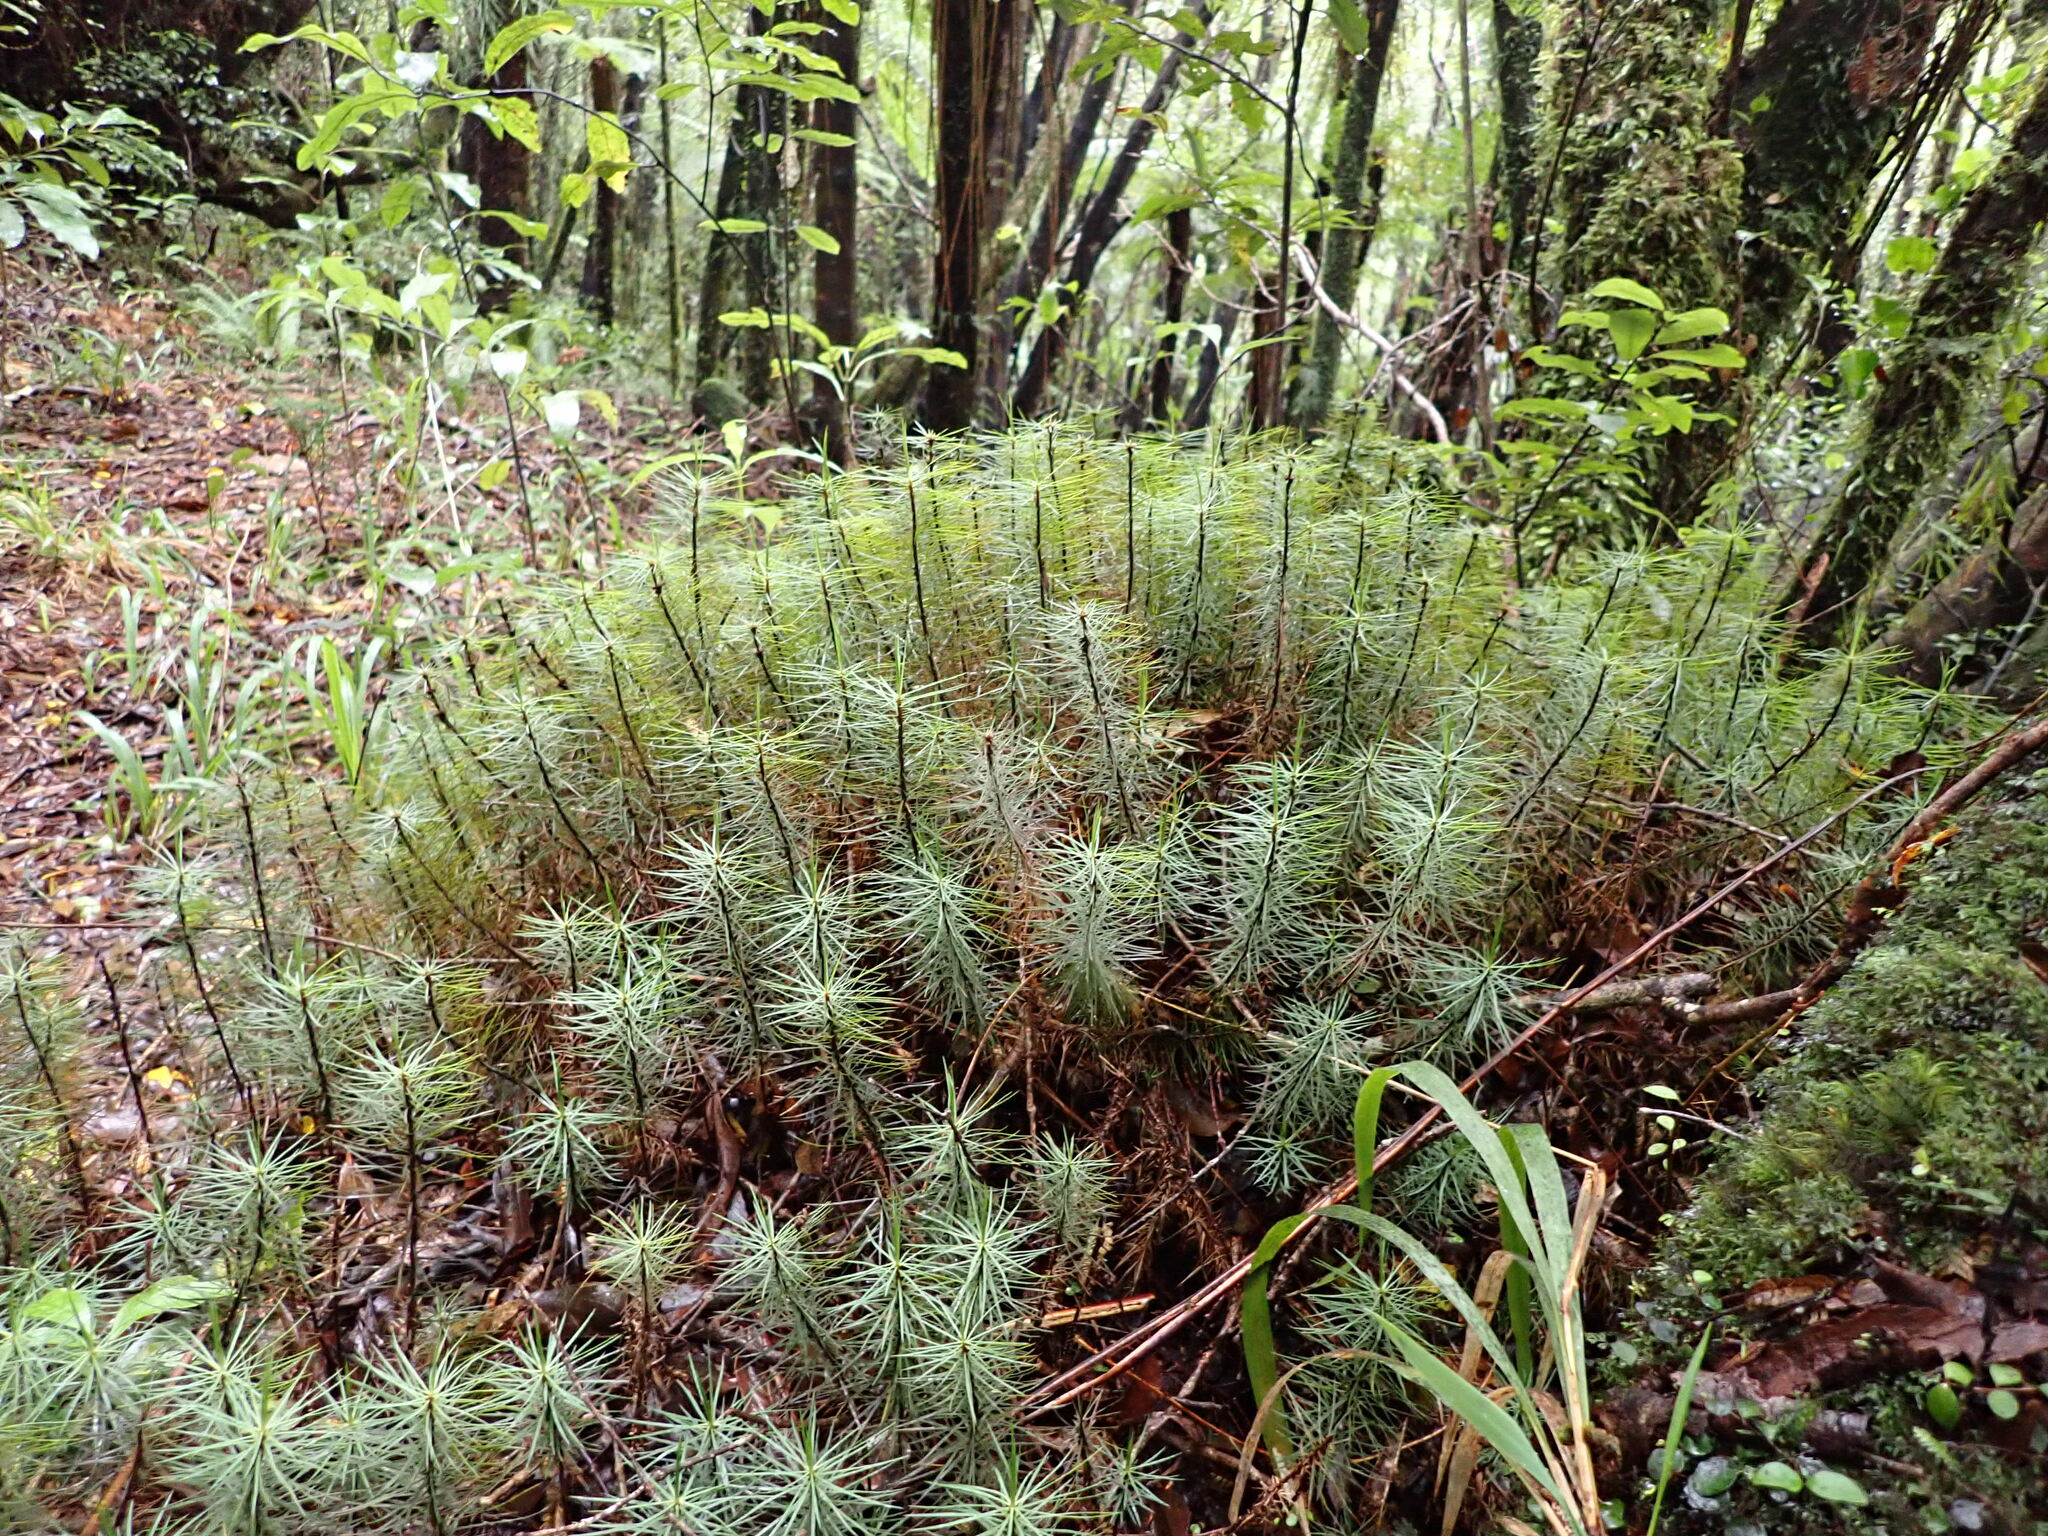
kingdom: Plantae
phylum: Bryophyta
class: Polytrichopsida
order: Polytrichales
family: Polytrichaceae
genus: Dawsonia
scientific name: Dawsonia superba
